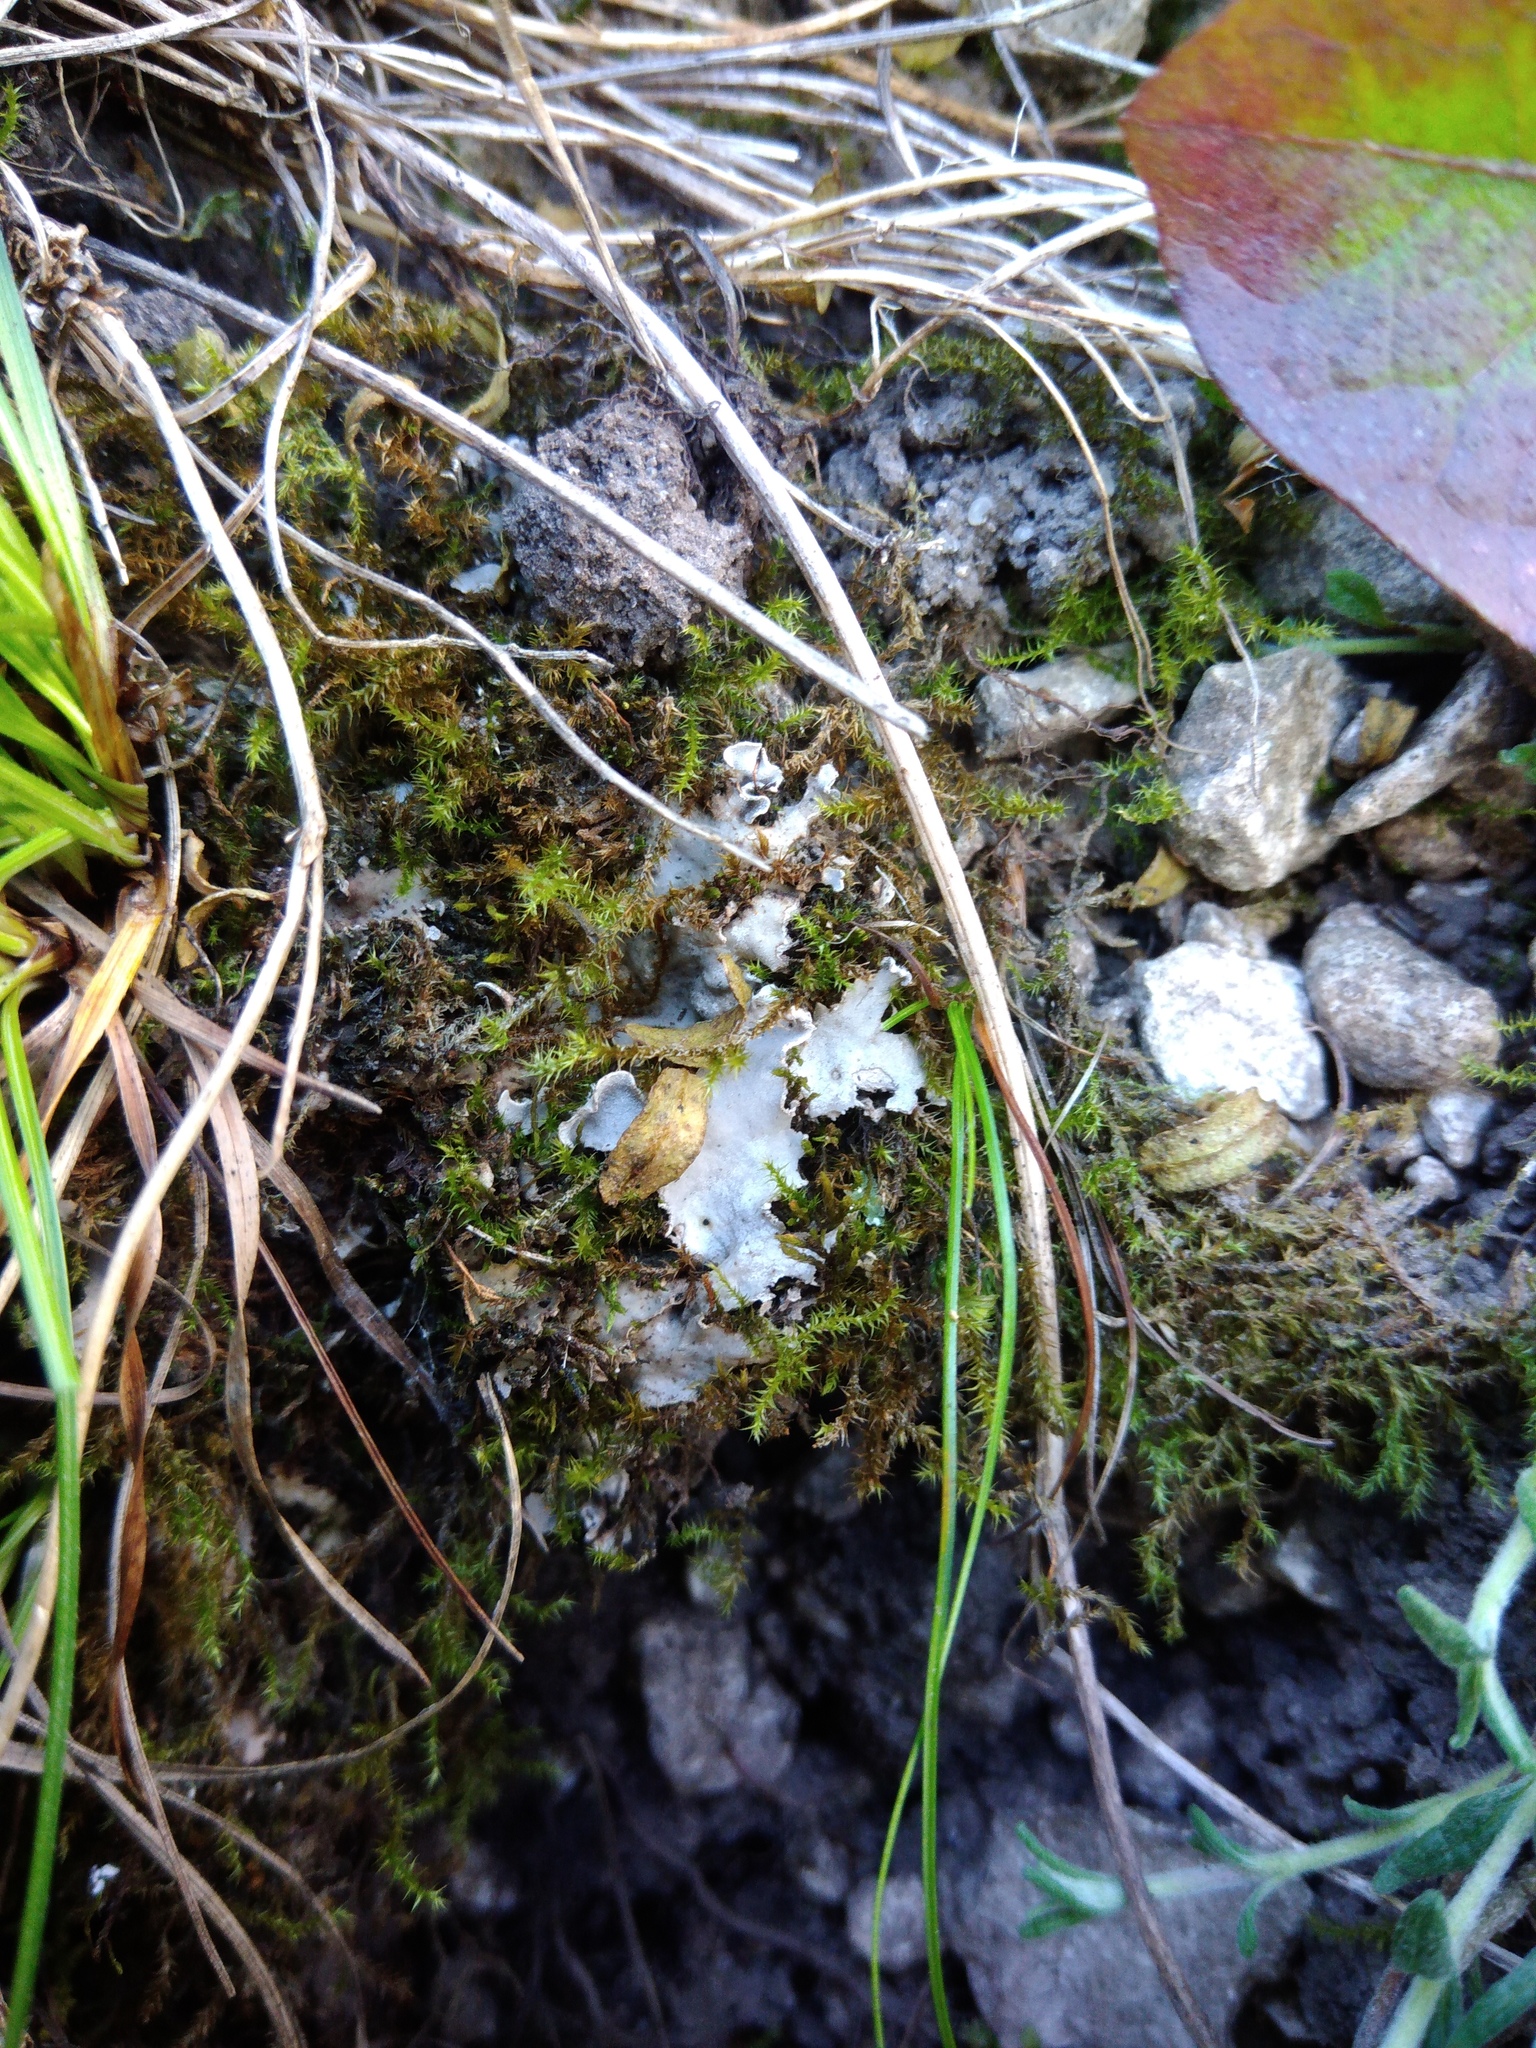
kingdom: Fungi
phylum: Ascomycota
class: Lecanoromycetes
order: Peltigerales
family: Peltigeraceae
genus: Peltigera
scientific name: Peltigera rufescens
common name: Field dog lichen
